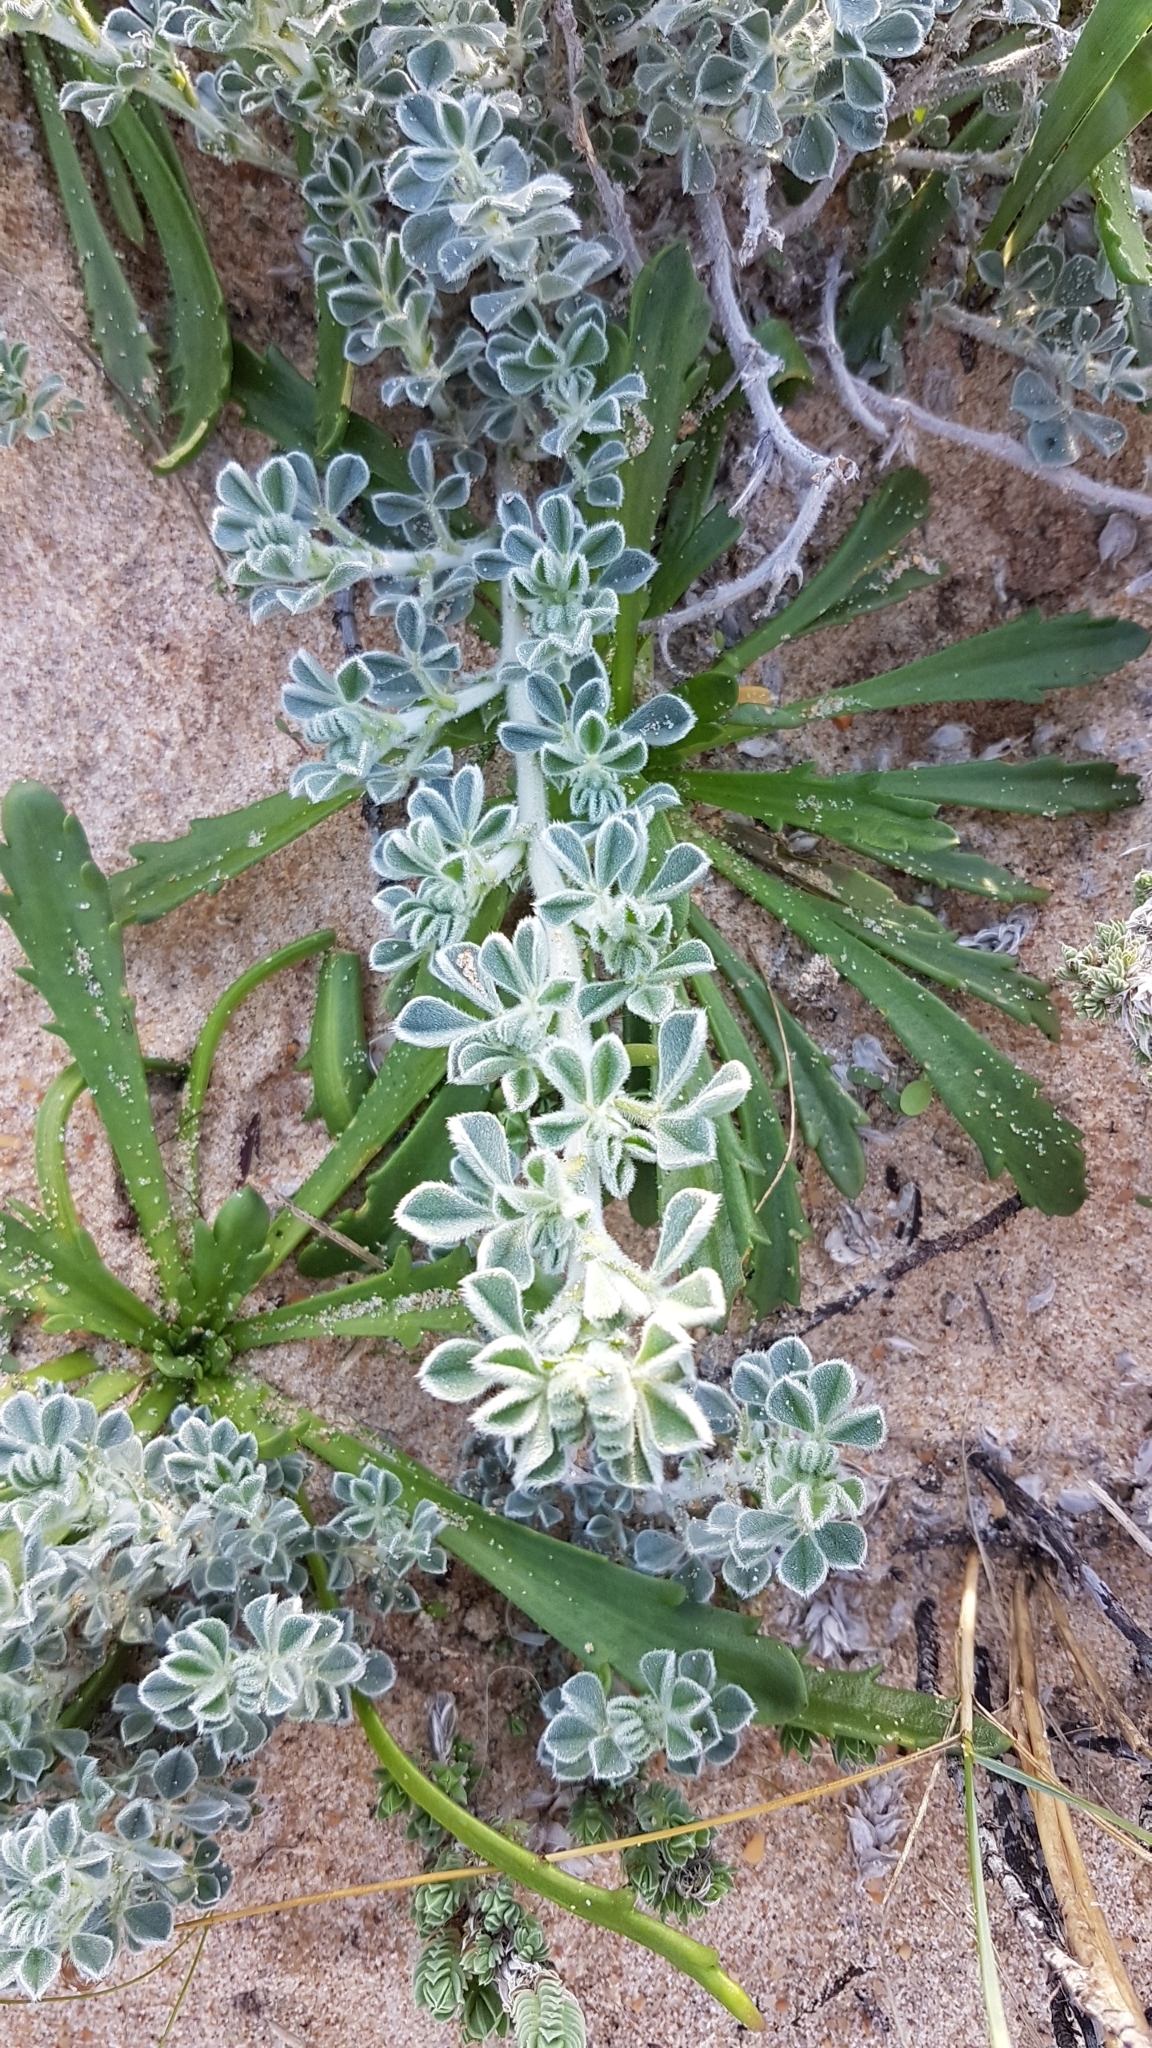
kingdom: Plantae
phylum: Tracheophyta
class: Magnoliopsida
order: Fabales
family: Fabaceae
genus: Medicago
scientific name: Medicago marina
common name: Sea medick
